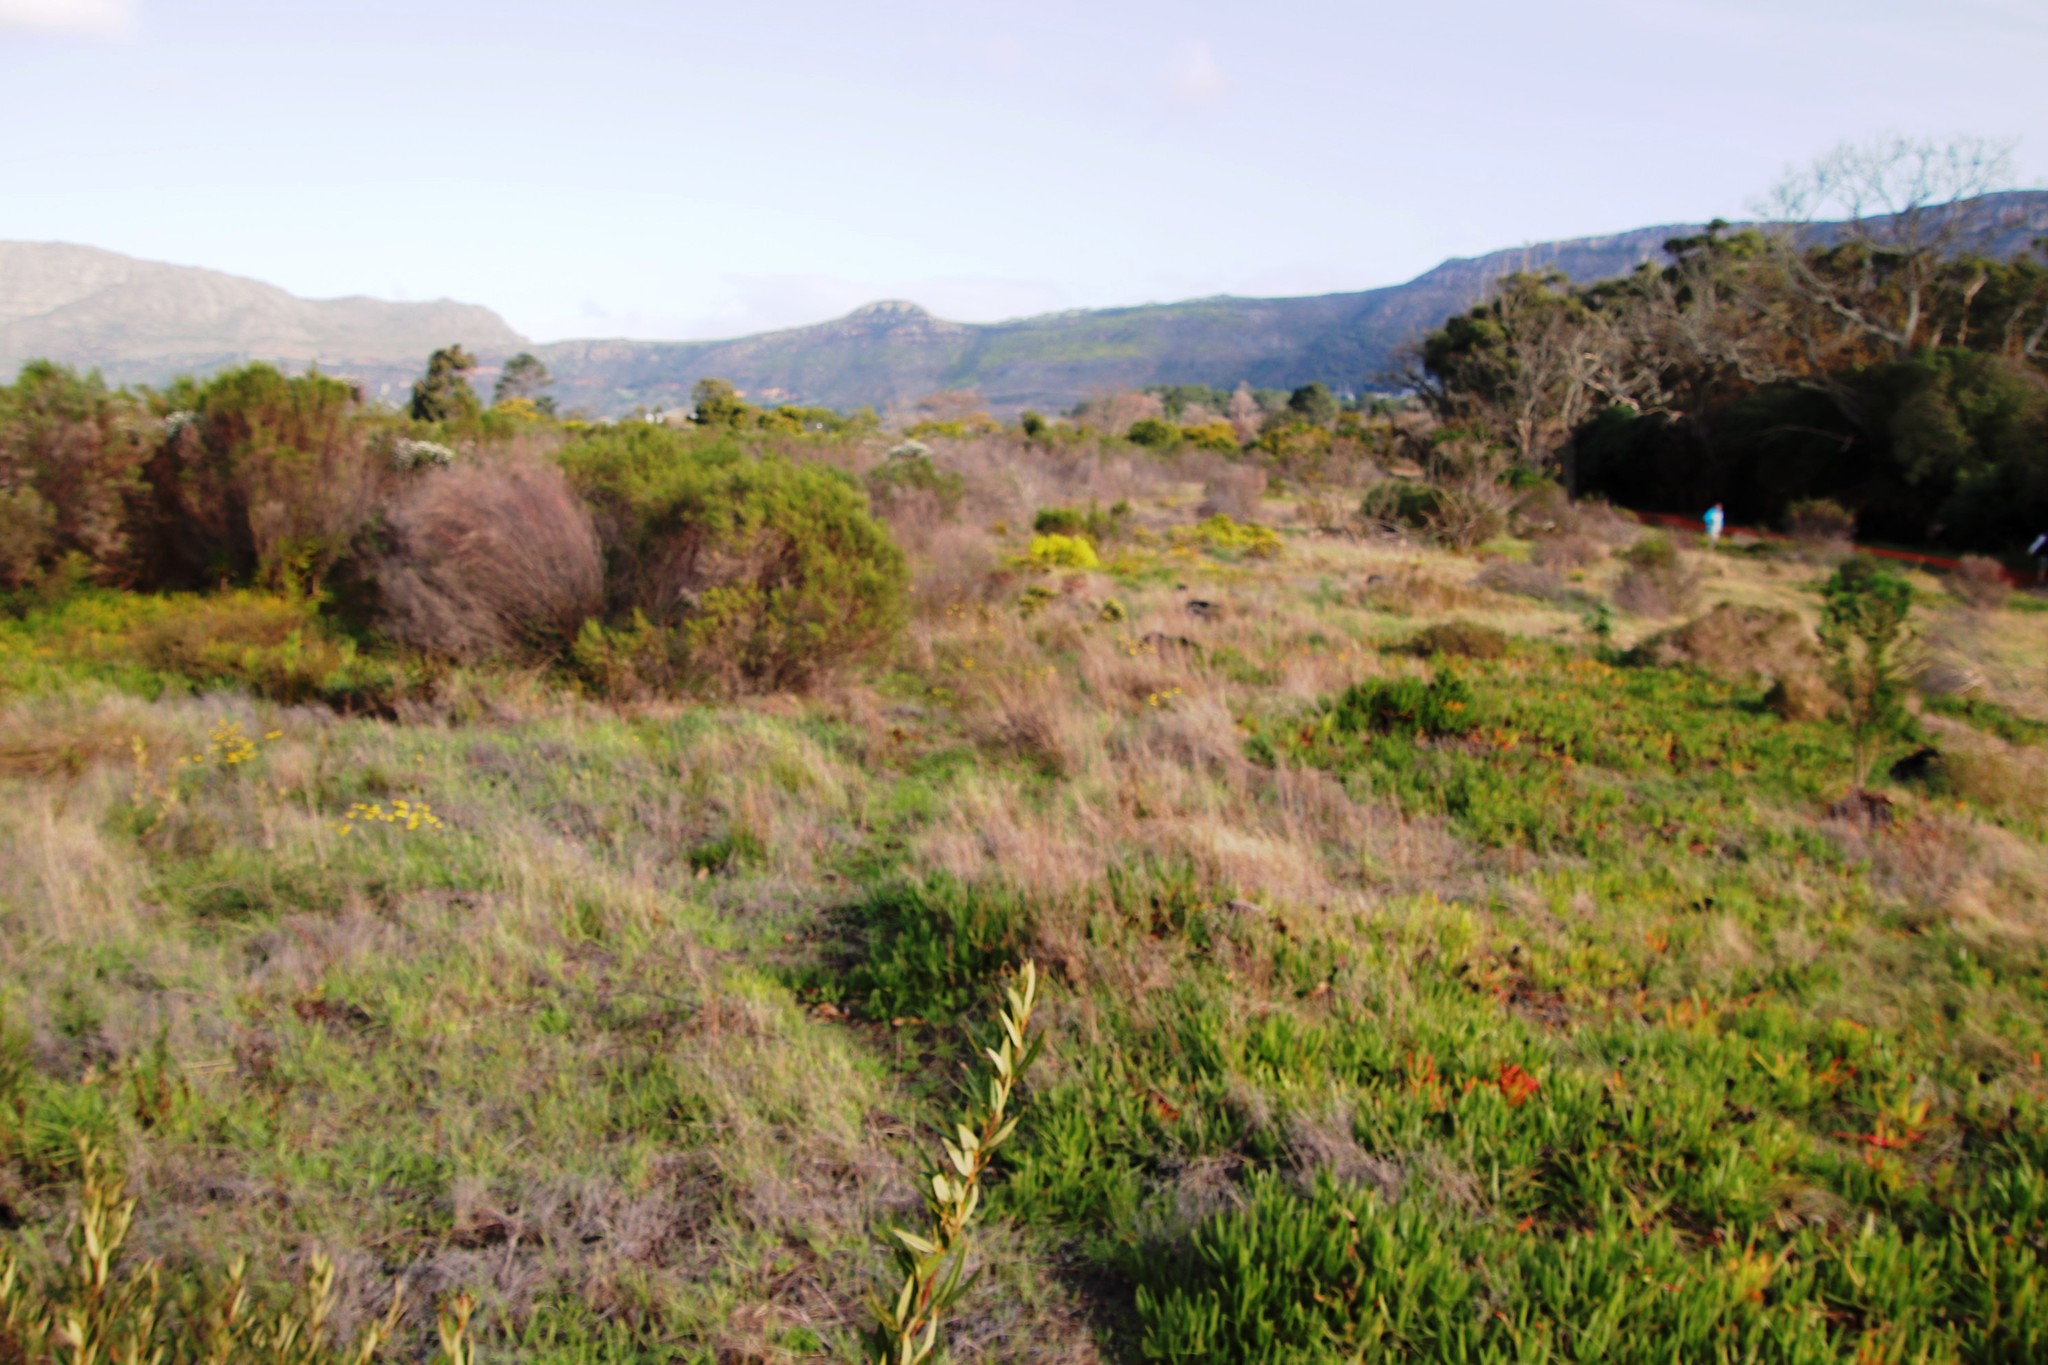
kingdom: Plantae
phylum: Tracheophyta
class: Magnoliopsida
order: Caryophyllales
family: Aizoaceae
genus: Carpobrotus
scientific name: Carpobrotus edulis
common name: Hottentot-fig
